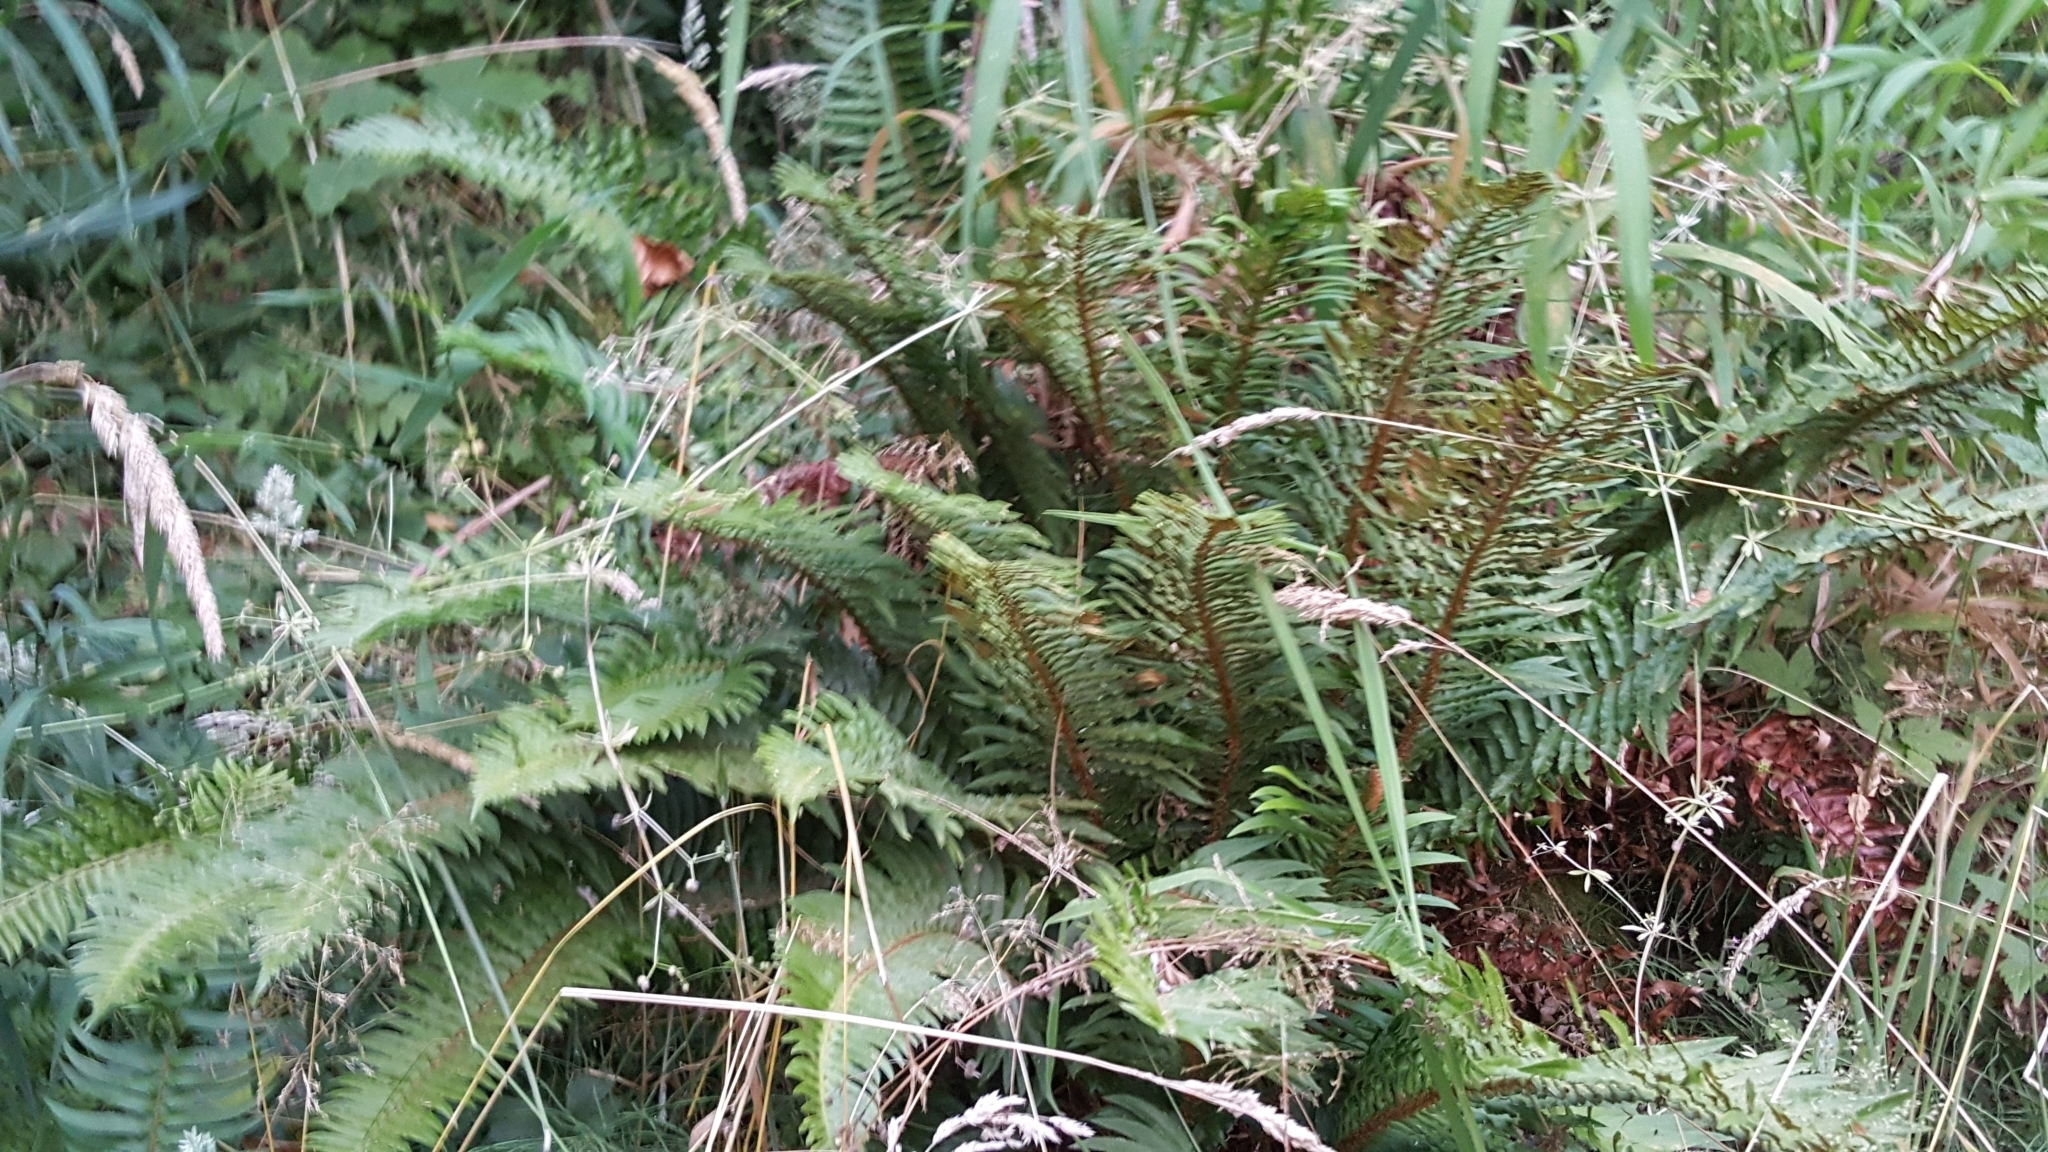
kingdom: Plantae
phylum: Tracheophyta
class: Polypodiopsida
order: Polypodiales
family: Dryopteridaceae
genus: Polystichum
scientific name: Polystichum munitum
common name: Western sword-fern
